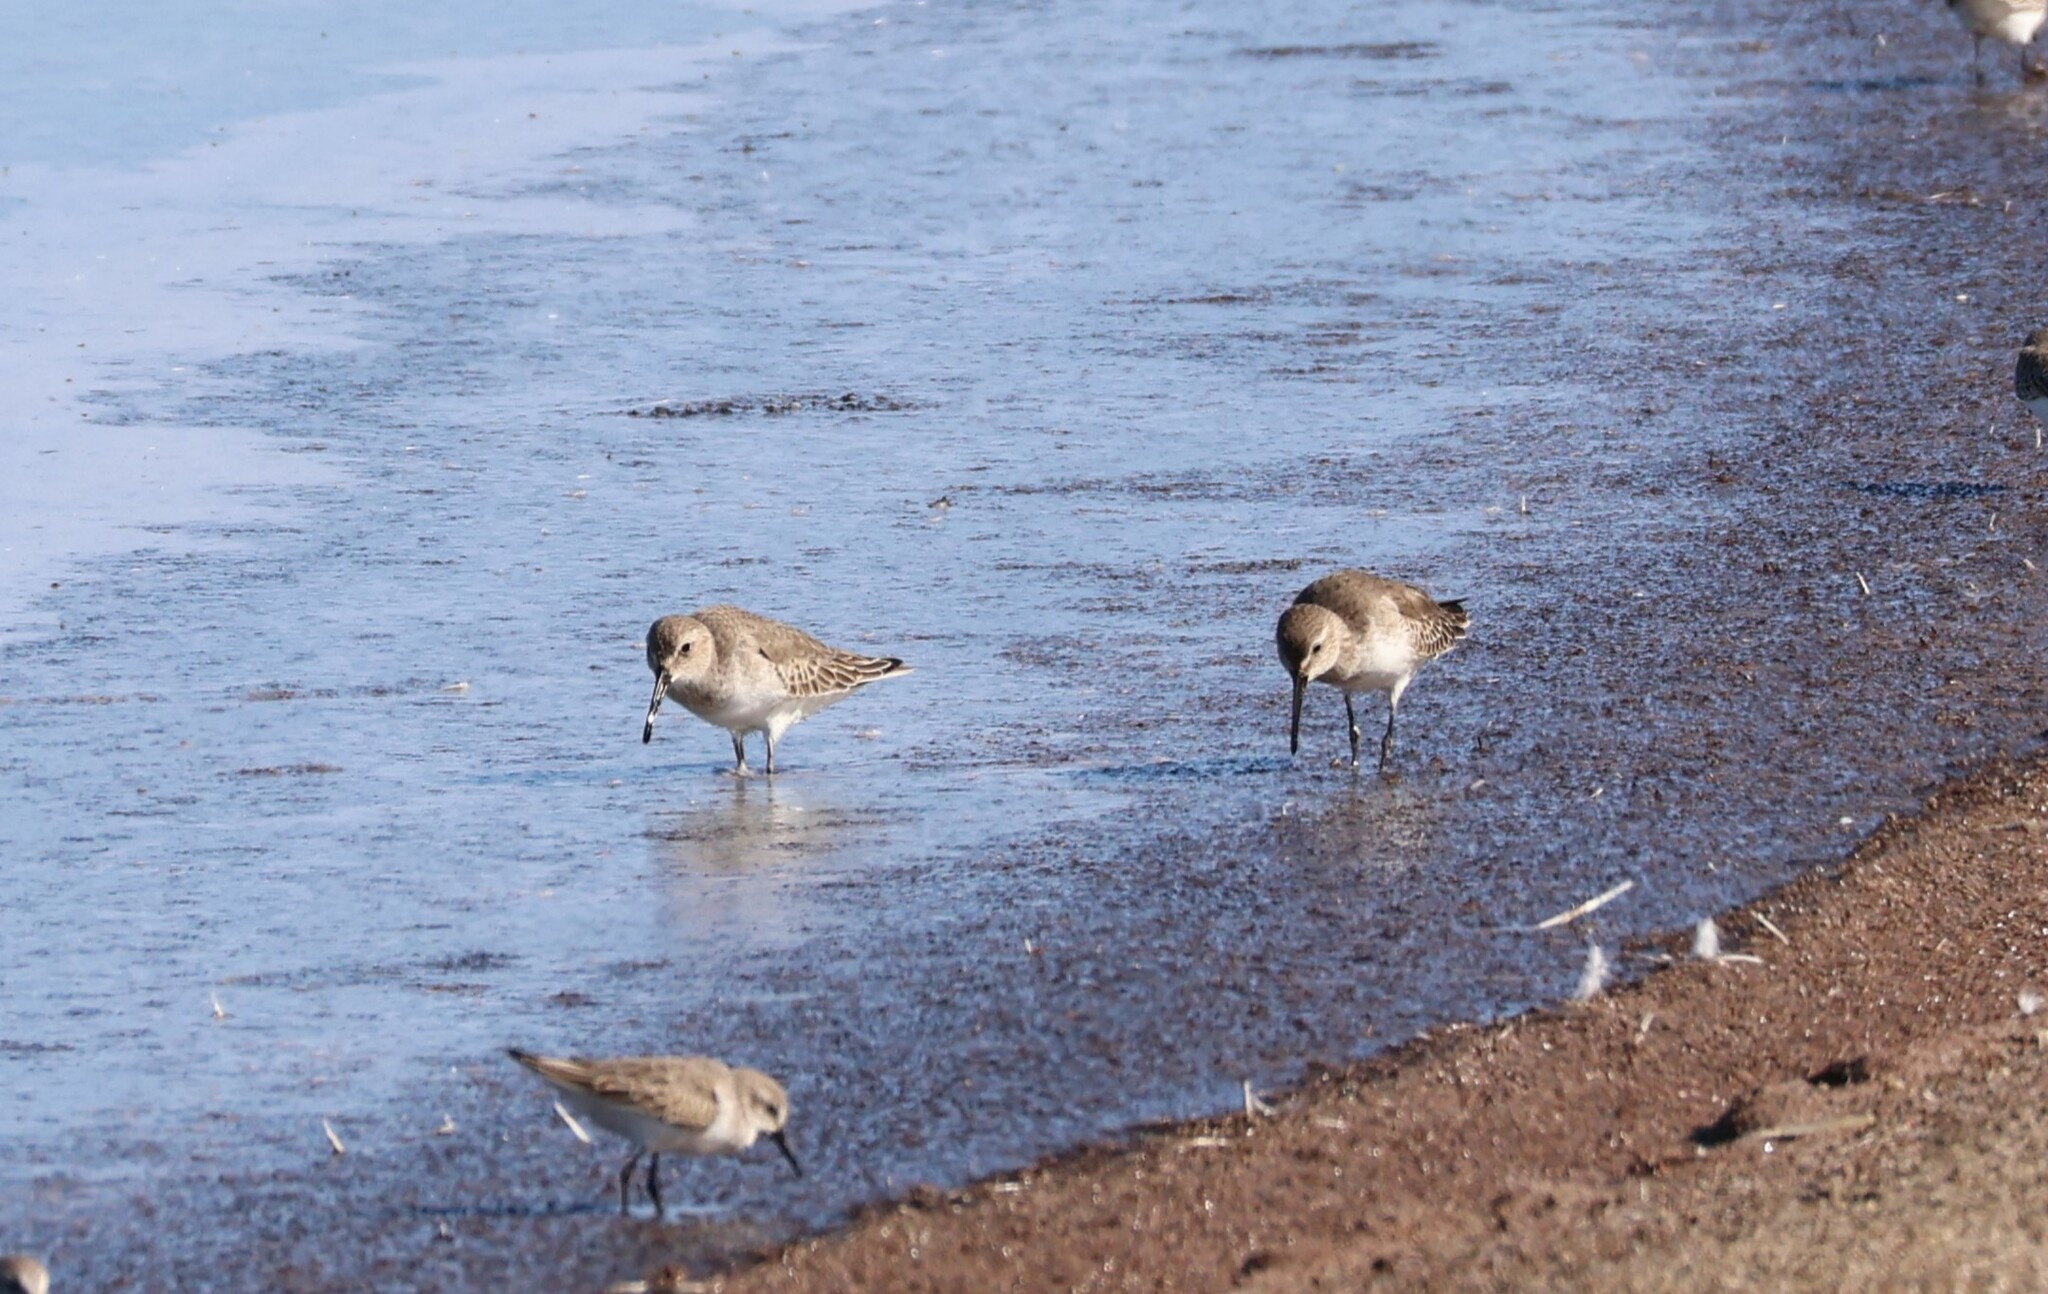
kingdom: Animalia
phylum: Chordata
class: Aves
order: Charadriiformes
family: Scolopacidae
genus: Calidris
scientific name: Calidris alpina
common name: Dunlin
